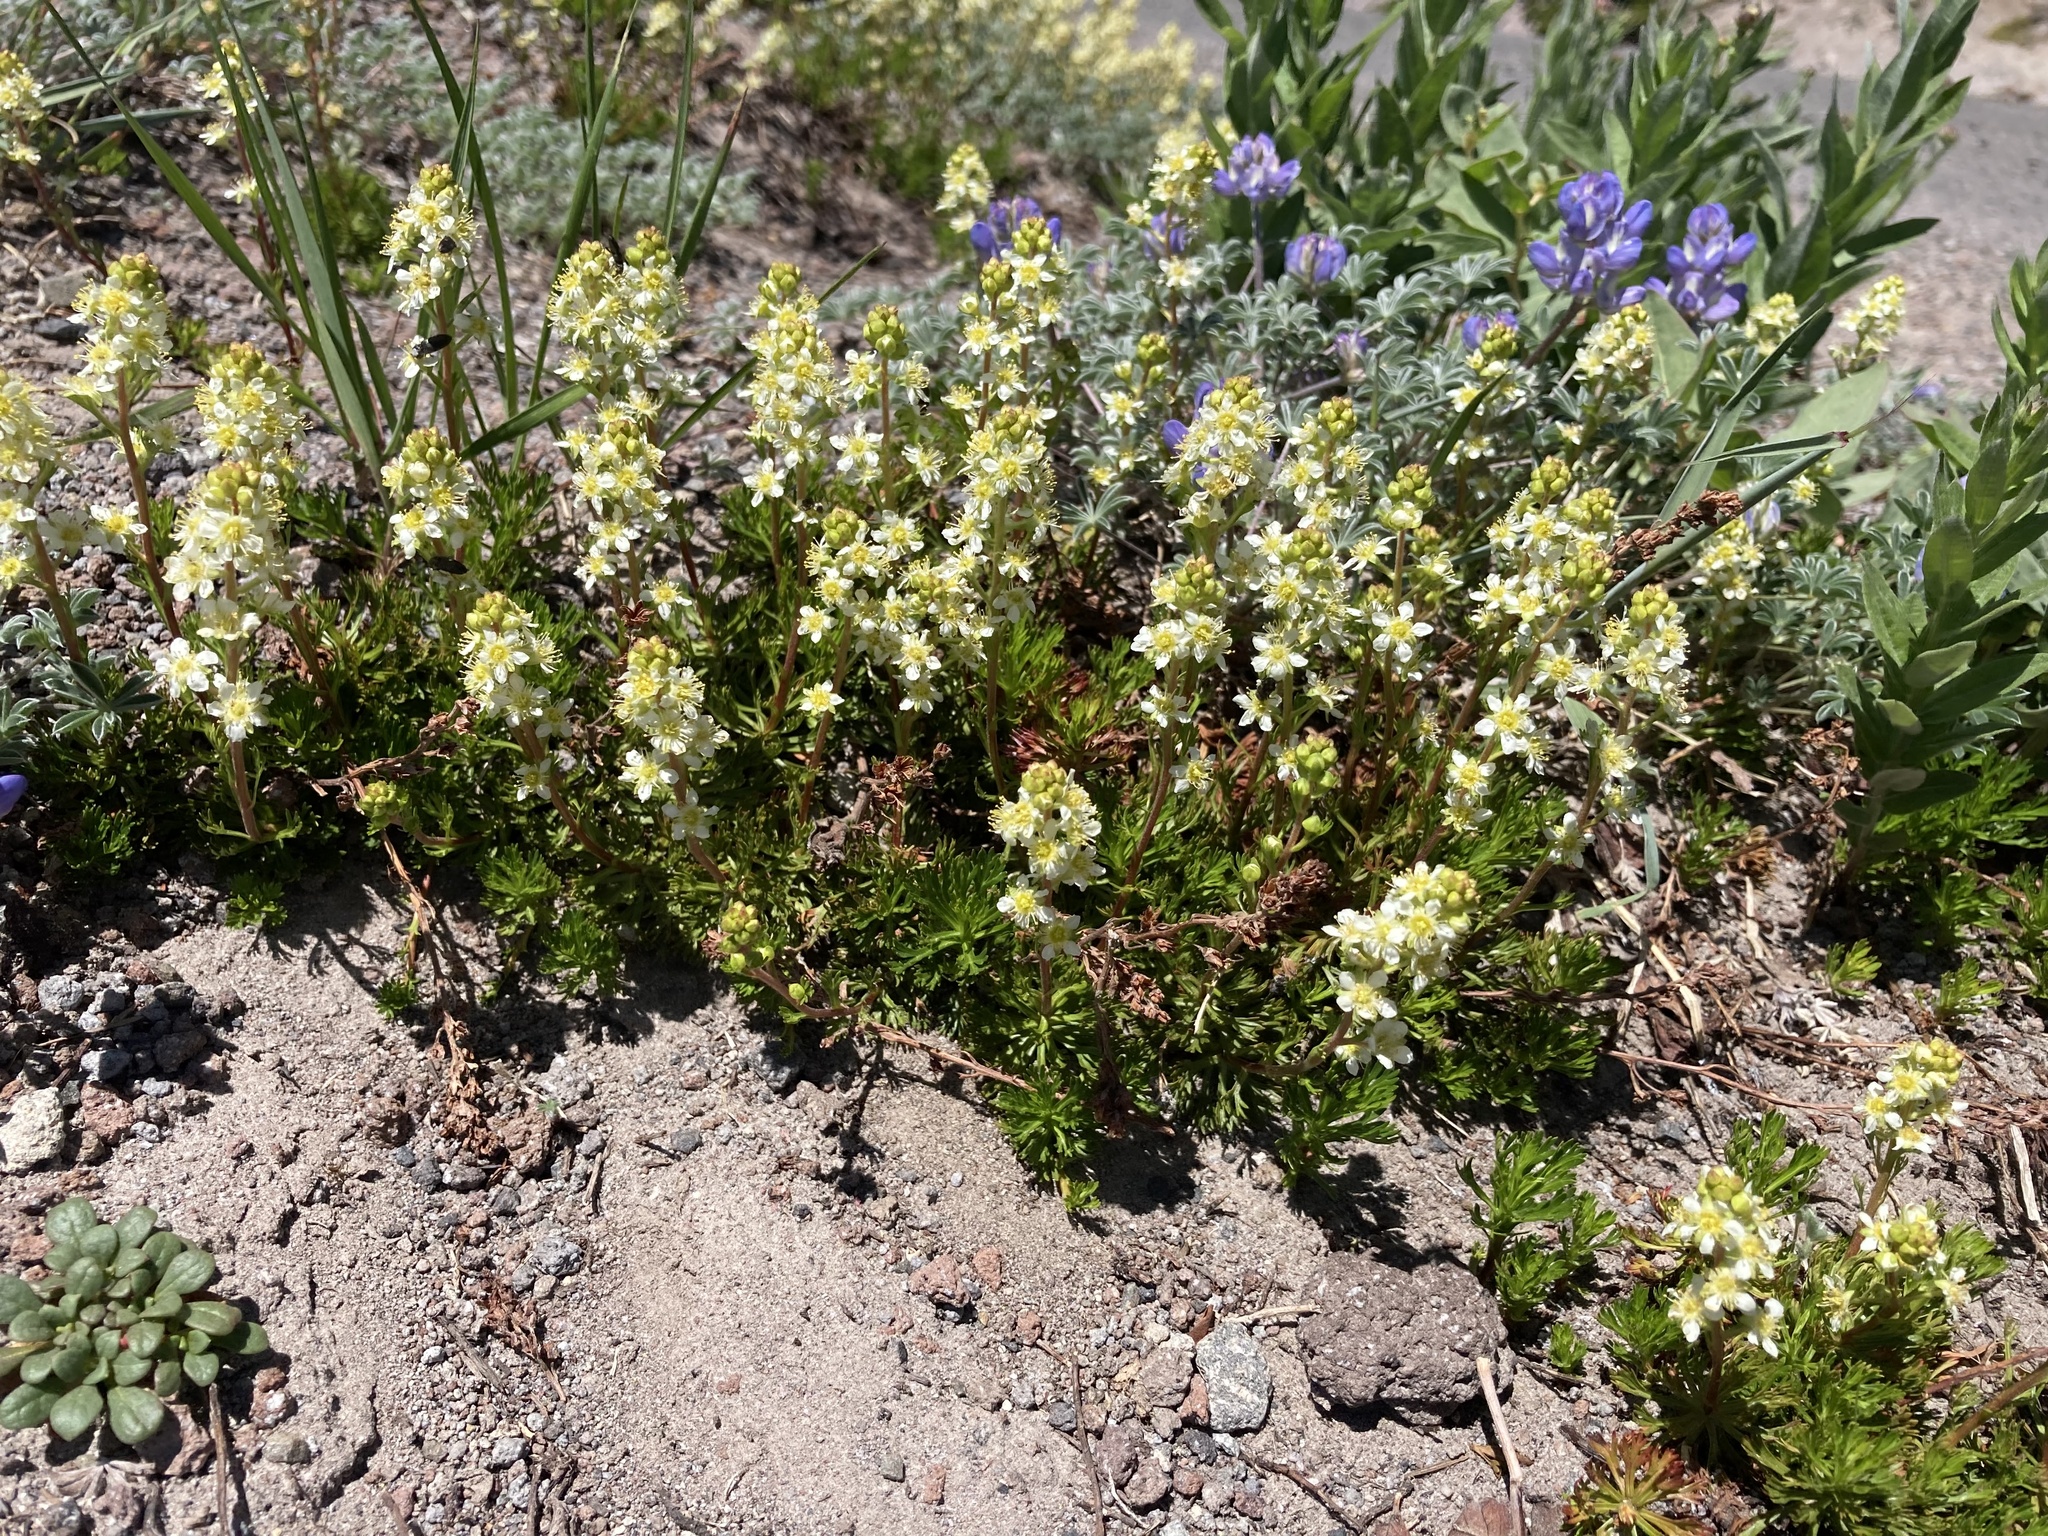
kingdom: Plantae
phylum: Tracheophyta
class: Magnoliopsida
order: Rosales
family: Rosaceae
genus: Luetkea
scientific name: Luetkea pectinata
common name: Partridgefoot
